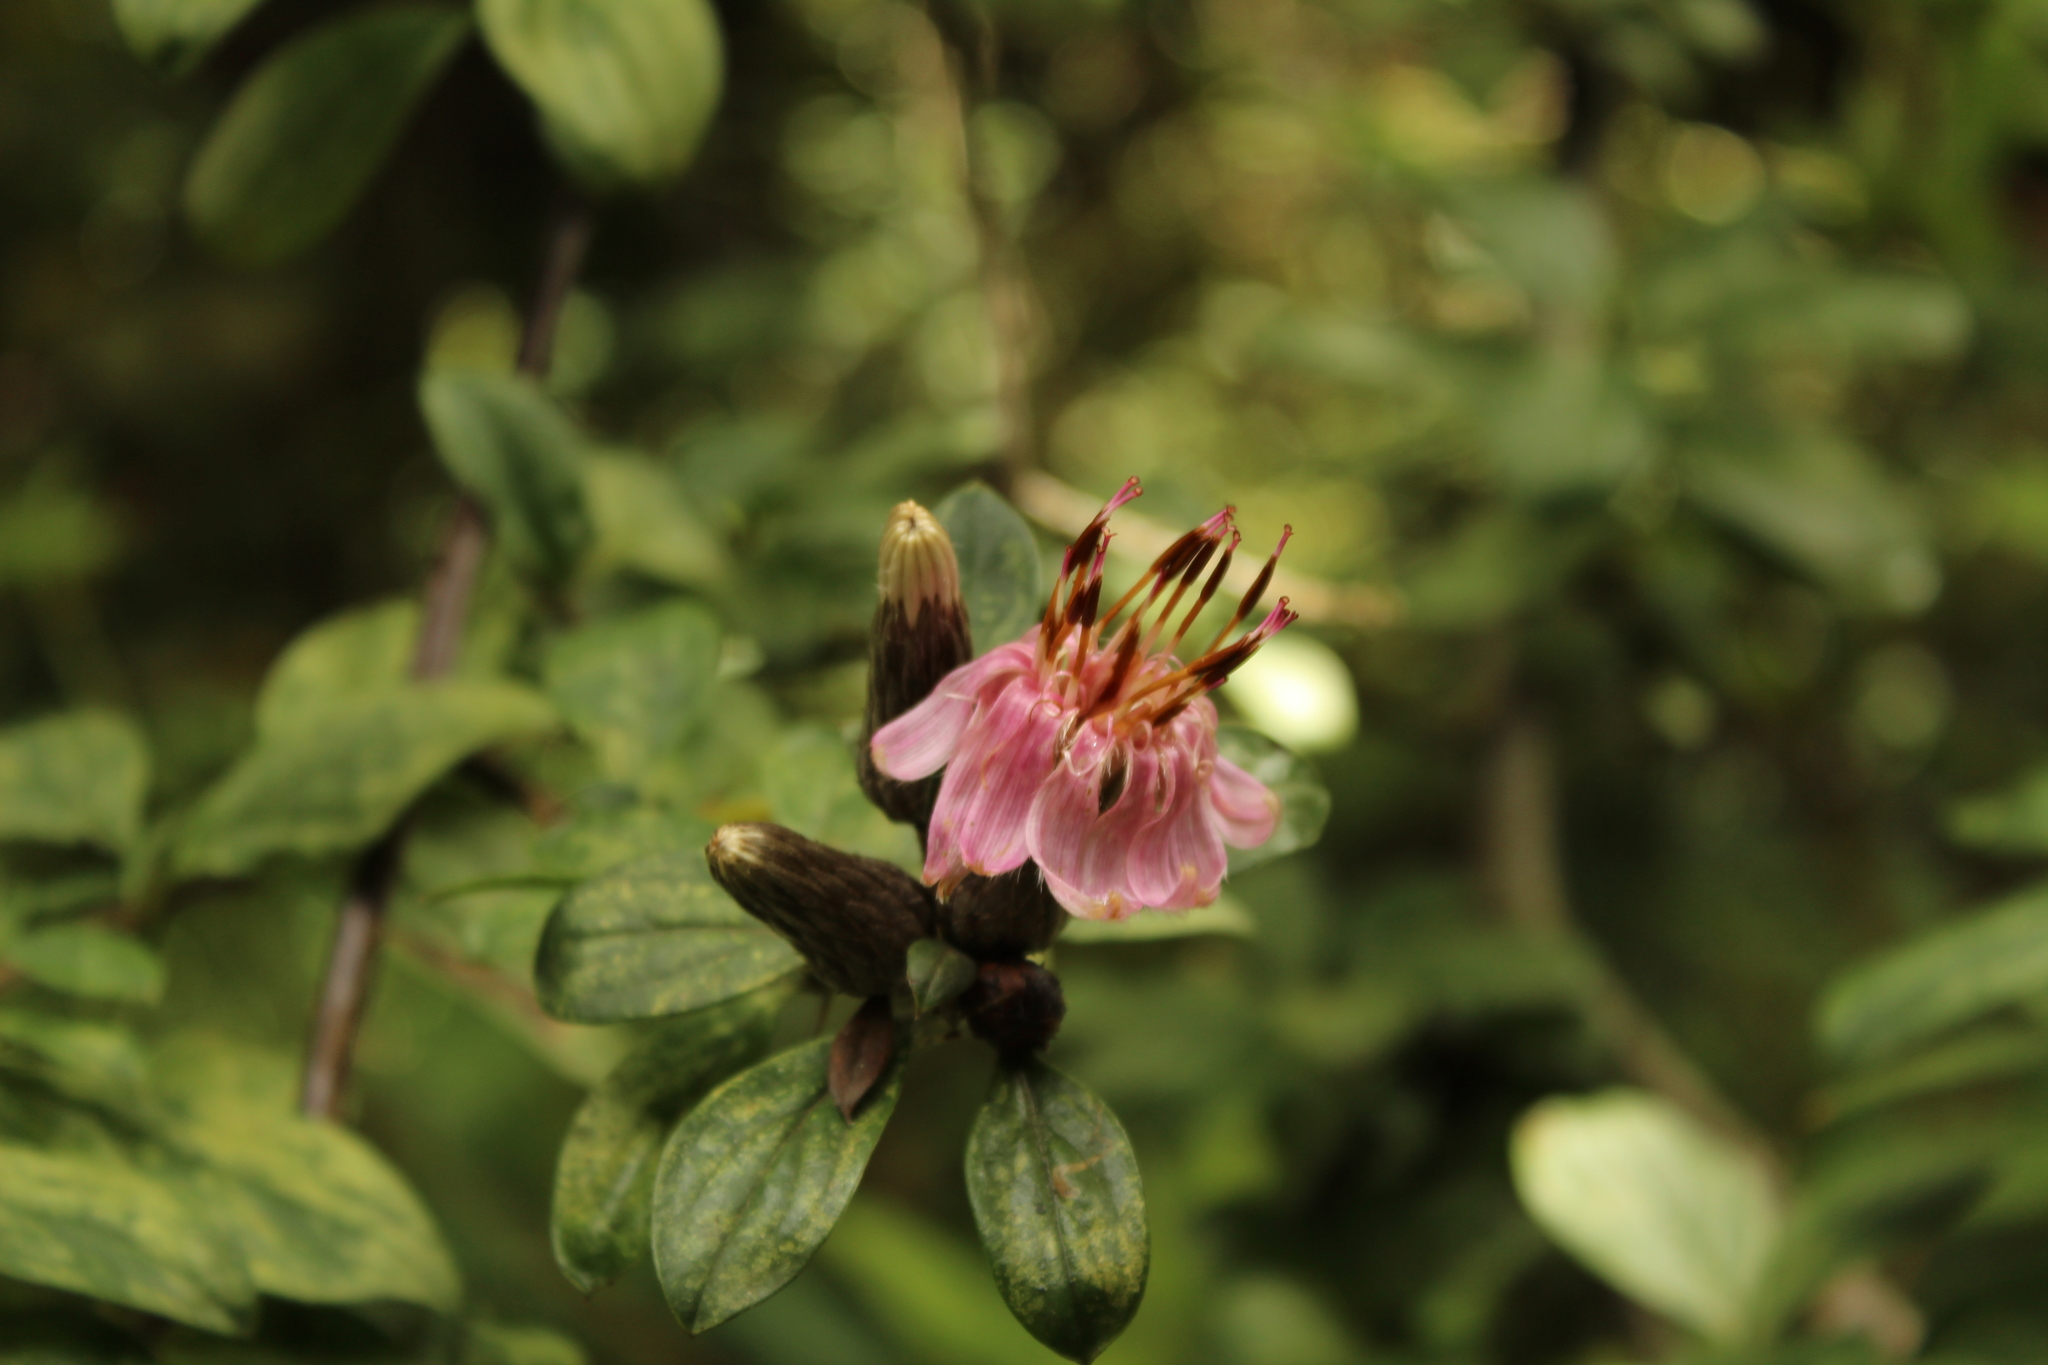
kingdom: Plantae
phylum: Tracheophyta
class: Magnoliopsida
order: Asterales
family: Asteraceae
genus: Barnadesia
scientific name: Barnadesia spinosa
